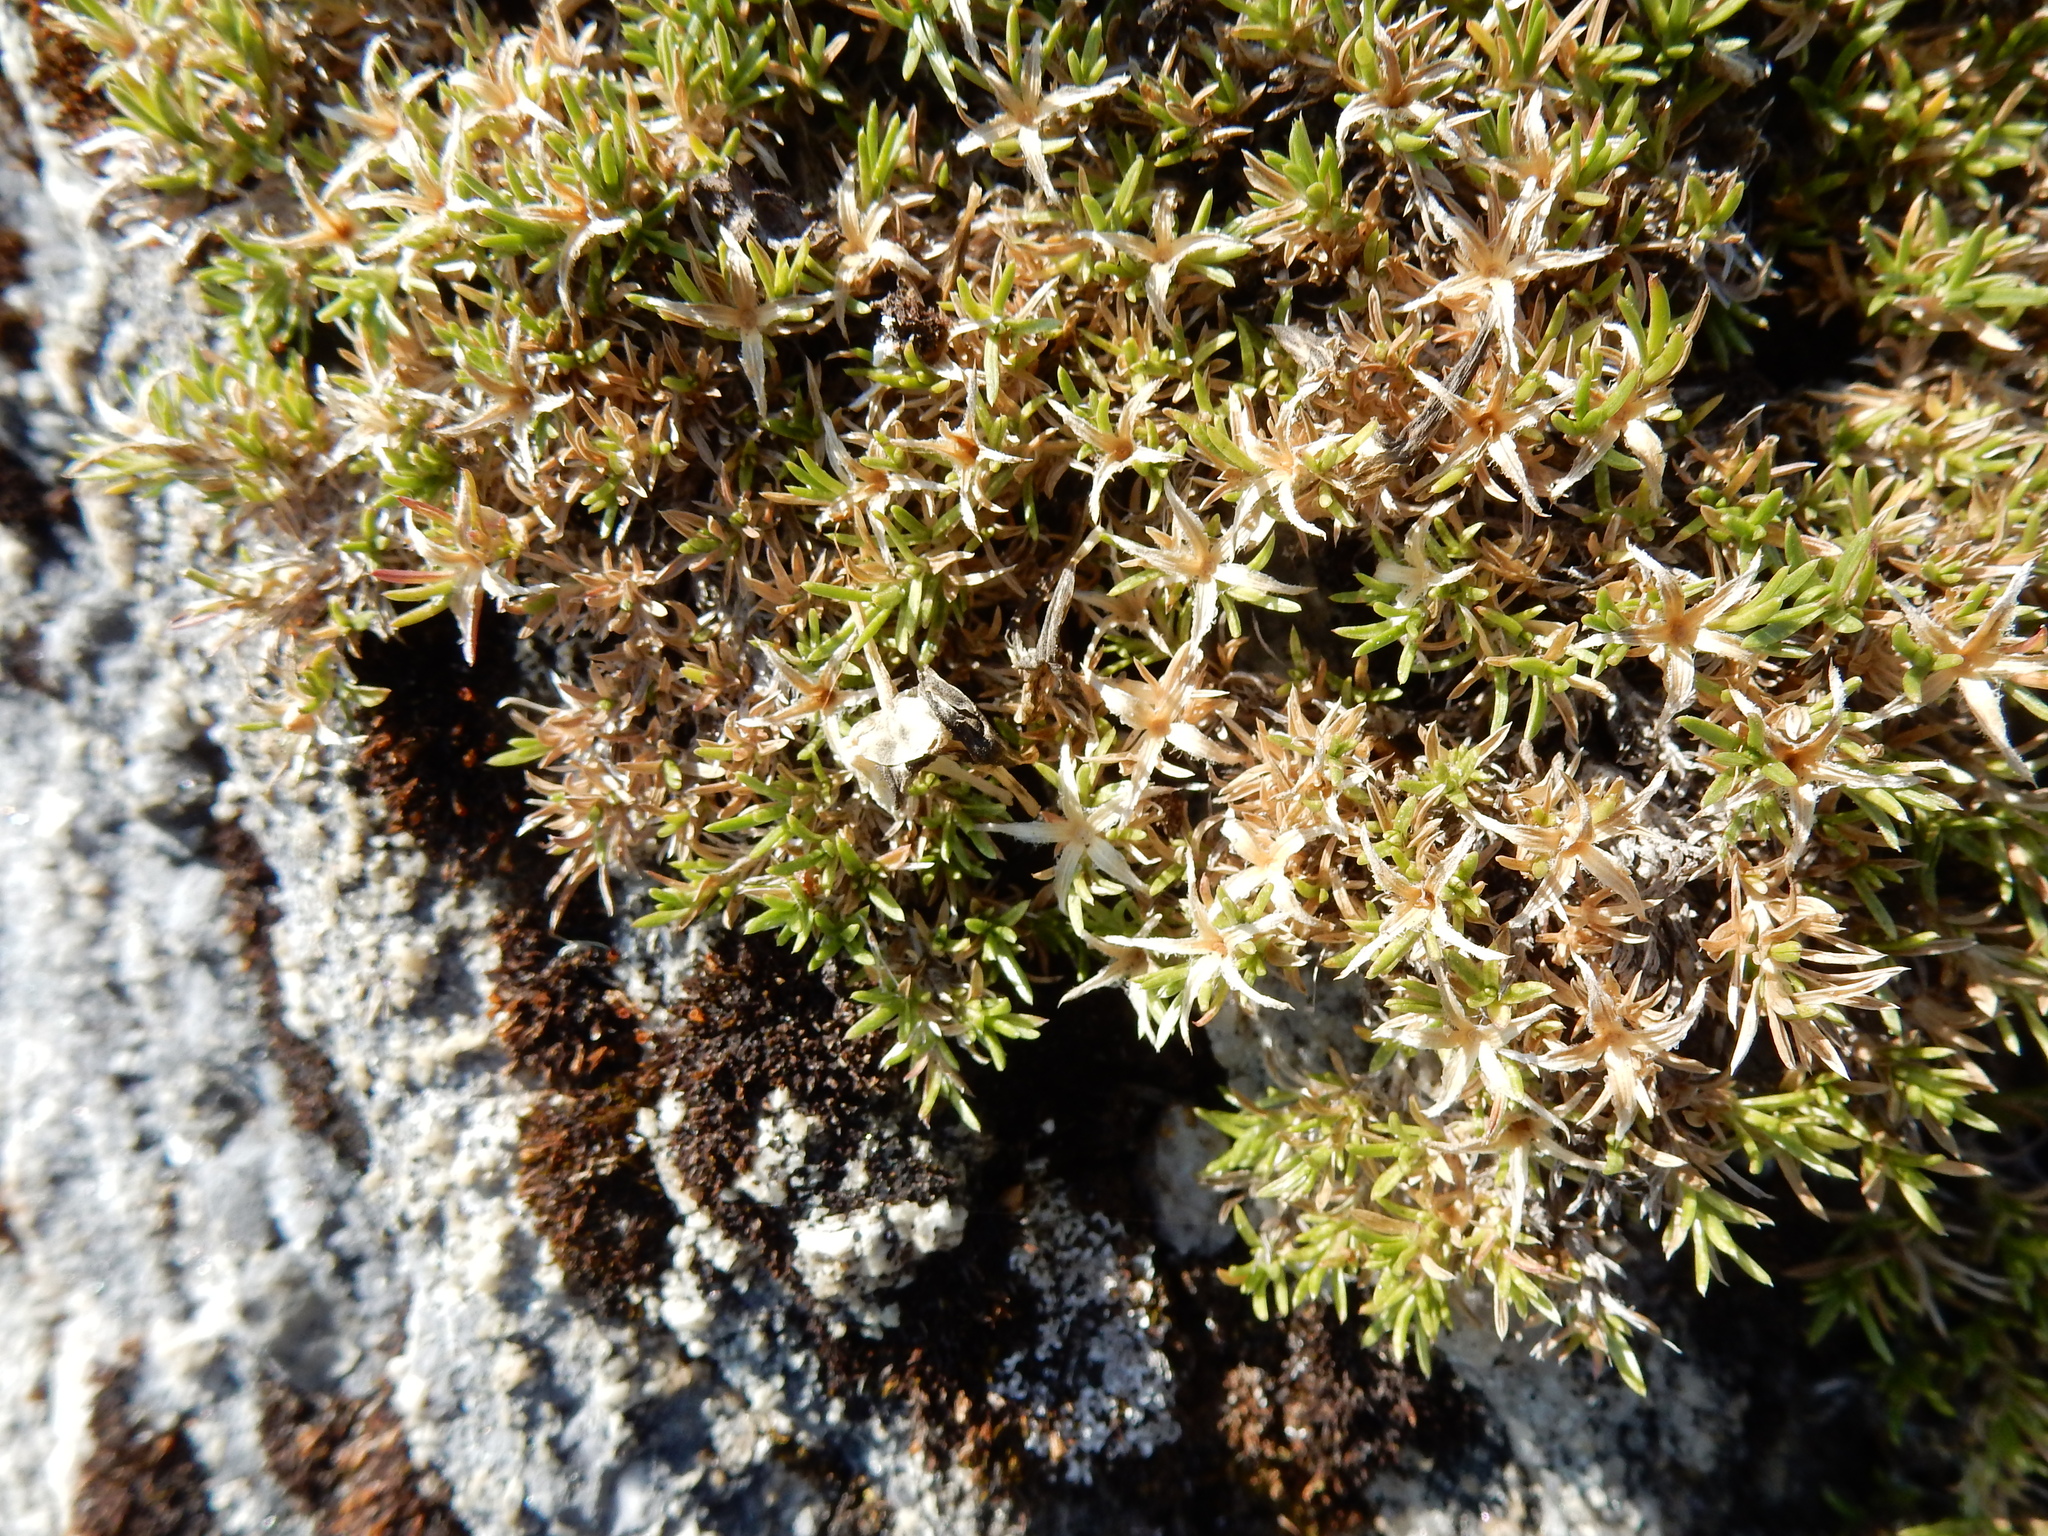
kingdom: Plantae
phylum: Tracheophyta
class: Magnoliopsida
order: Ericales
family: Polemoniaceae
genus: Phlox
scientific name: Phlox diffusa
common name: Mat phlox
